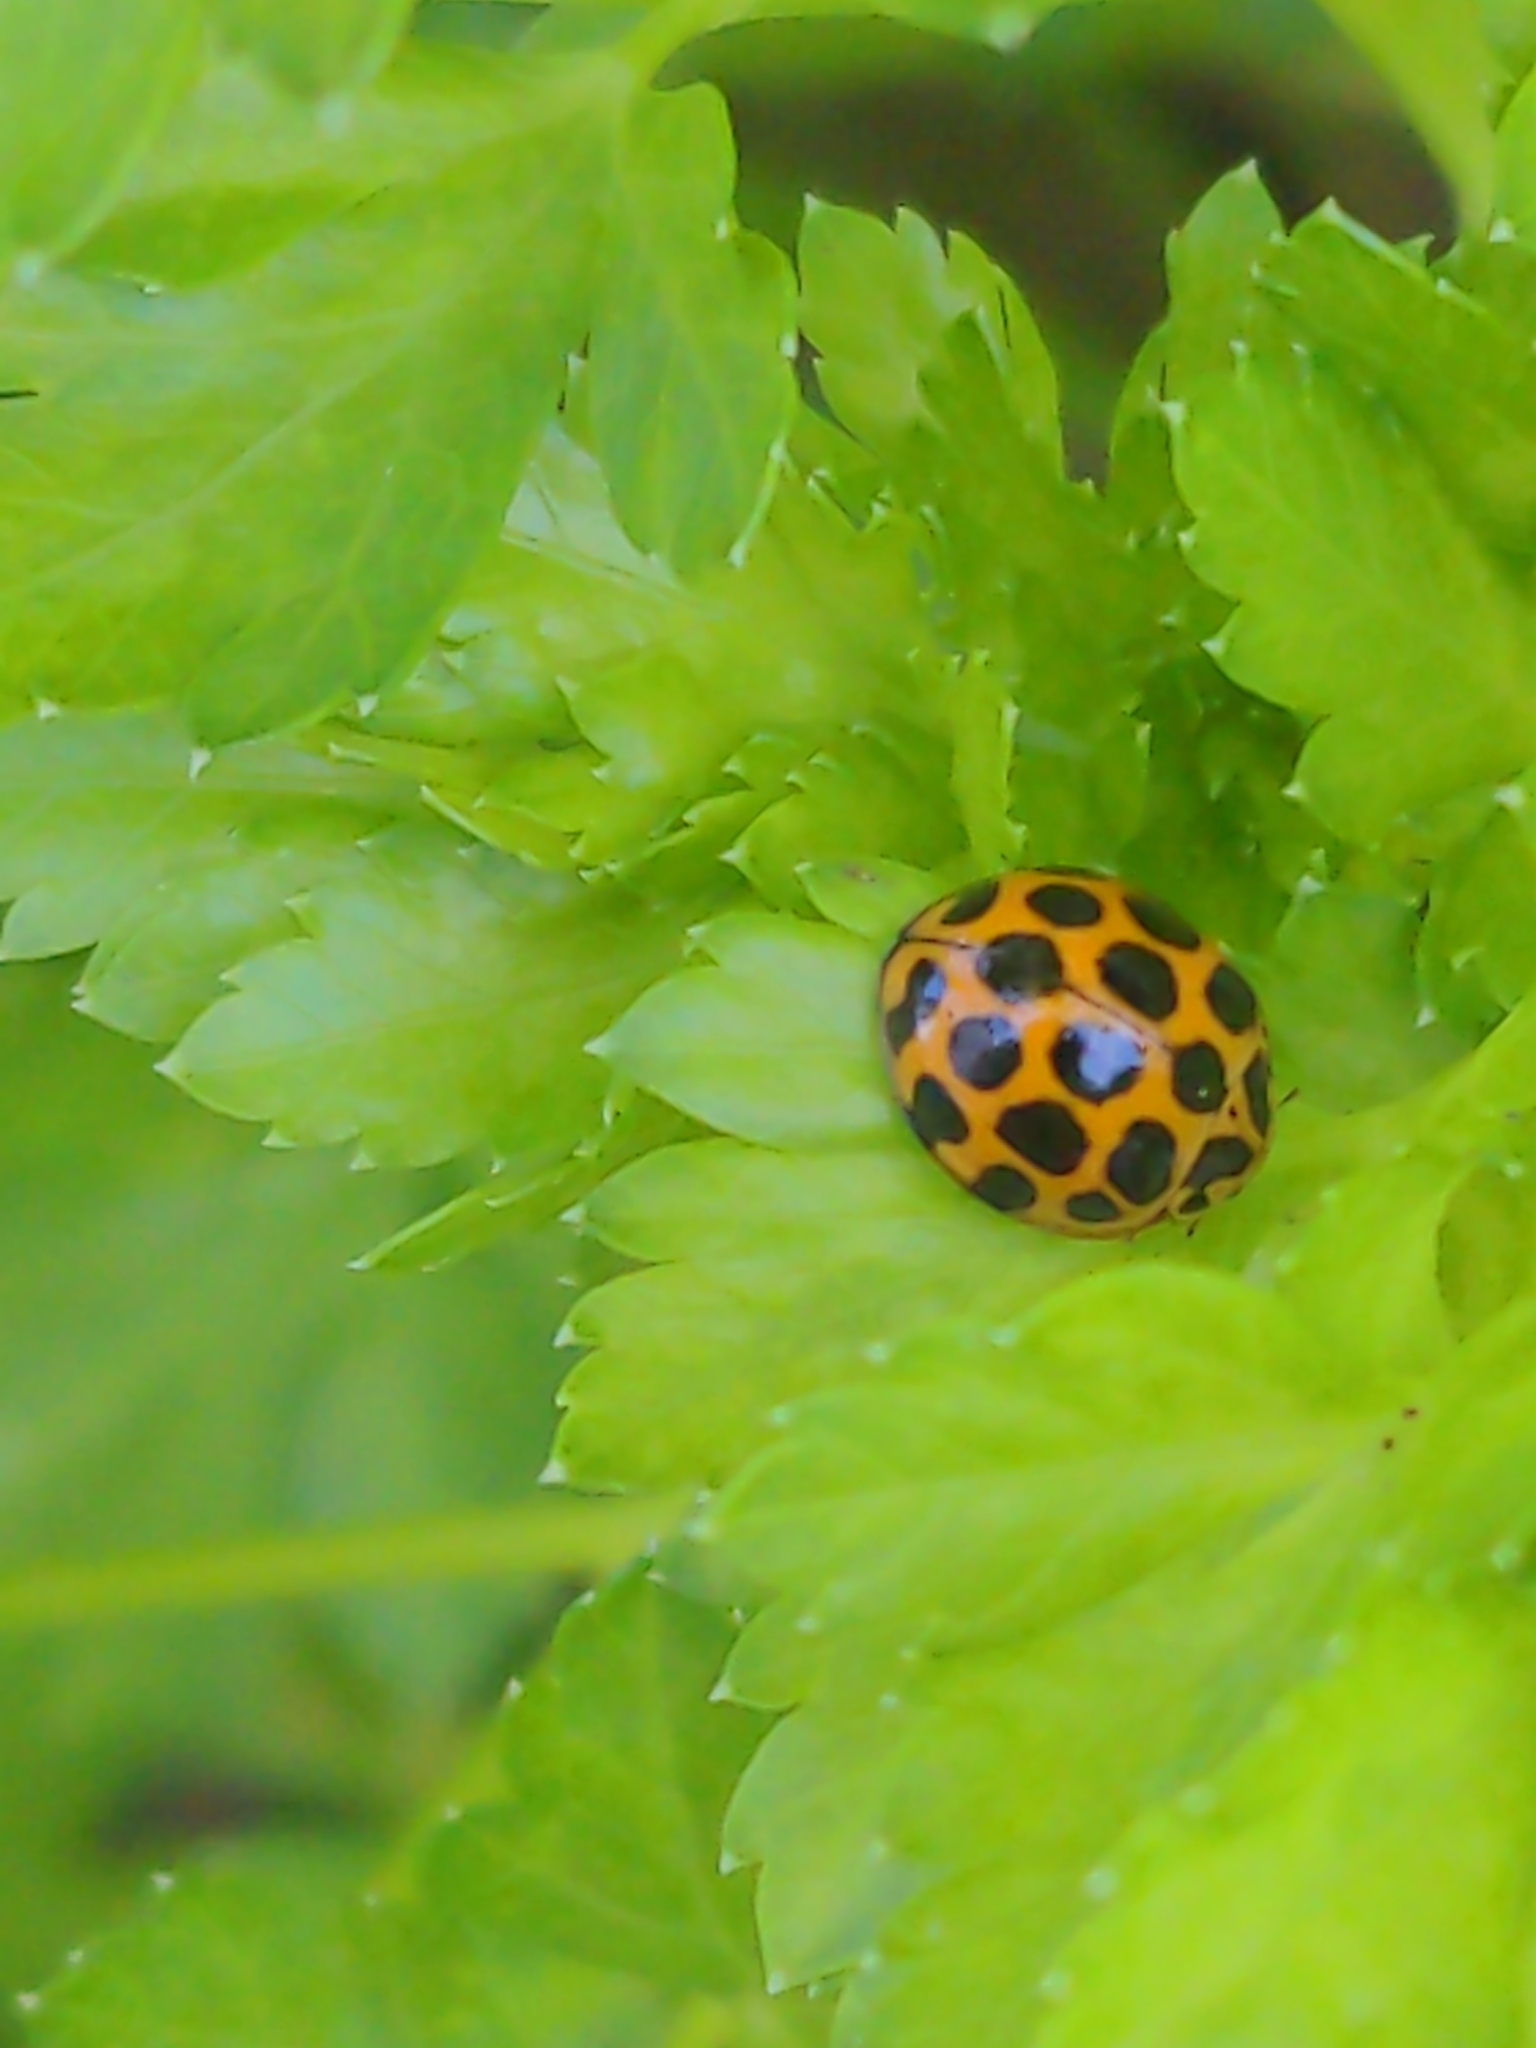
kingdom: Animalia
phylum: Arthropoda
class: Insecta
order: Coleoptera
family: Coccinellidae
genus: Harmonia
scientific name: Harmonia conformis
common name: Common spotted ladybird beetle
